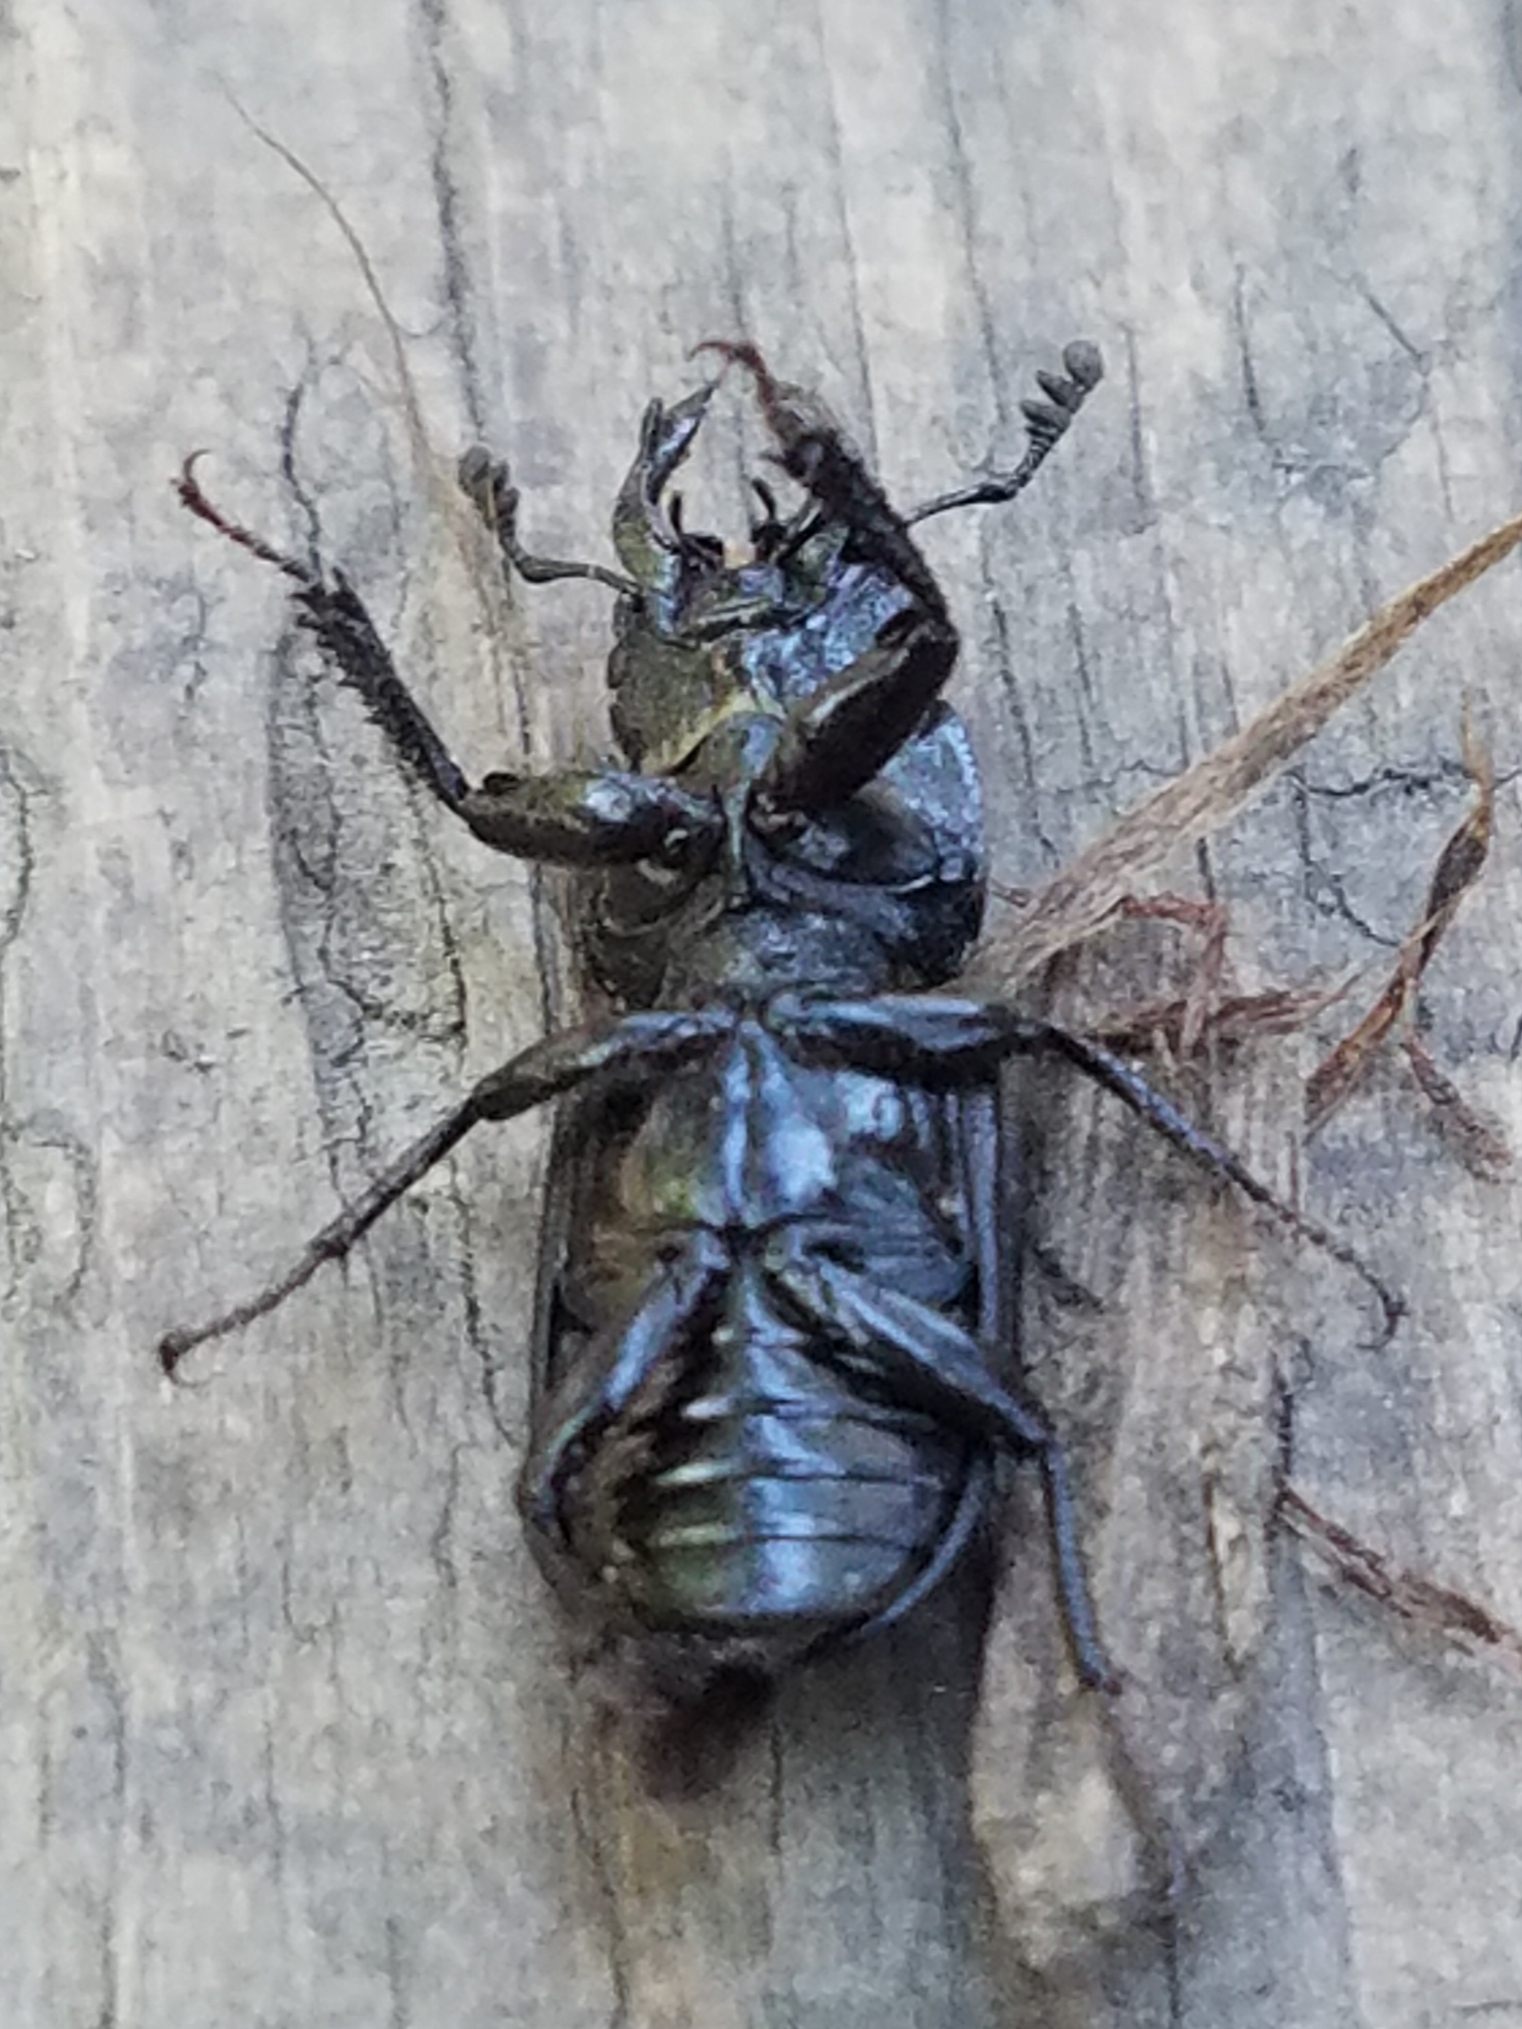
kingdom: Animalia
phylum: Arthropoda
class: Insecta
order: Coleoptera
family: Lucanidae
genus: Platycerus
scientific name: Platycerus oregonensis
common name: Oregon stag beetle
